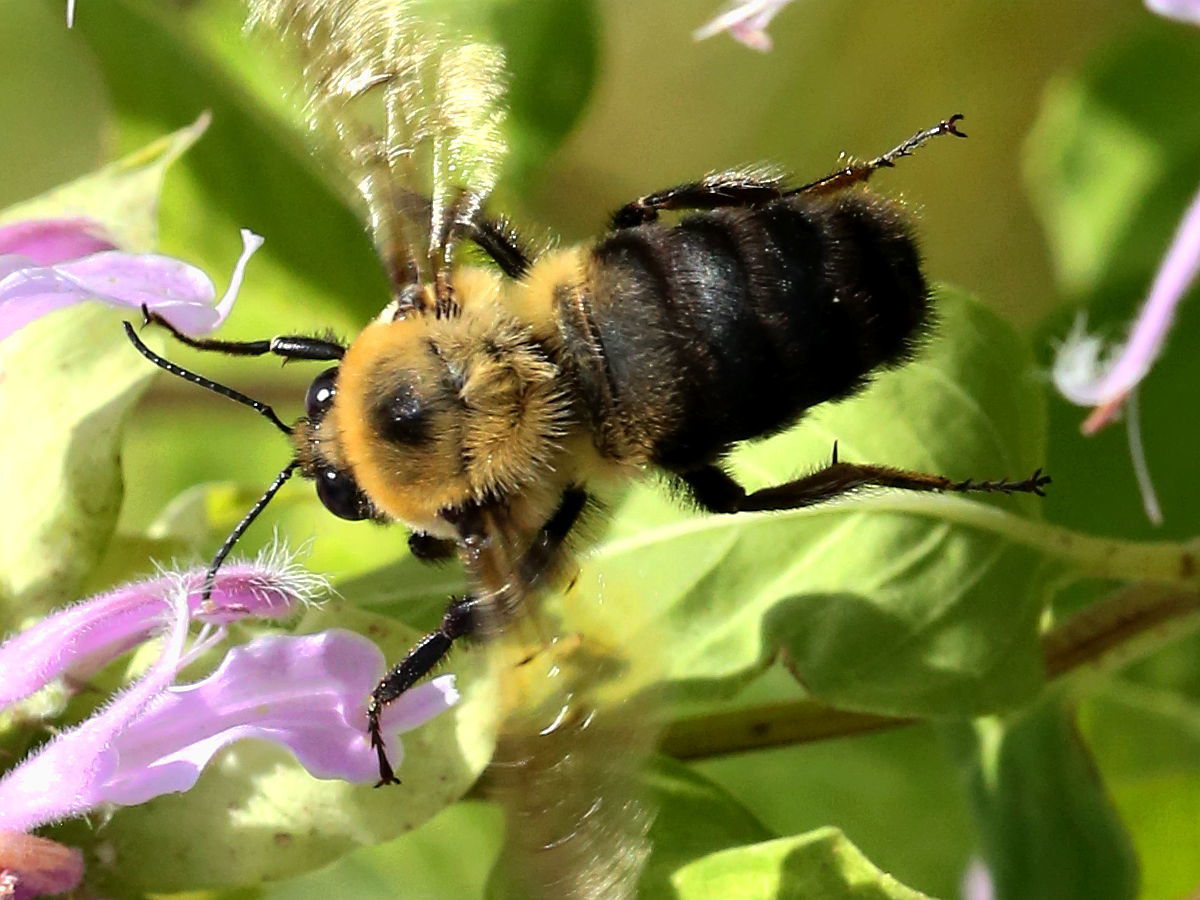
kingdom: Animalia
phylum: Arthropoda
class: Insecta
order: Hymenoptera
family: Apidae
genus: Bombus
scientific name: Bombus griseocollis
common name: Brown-belted bumble bee
